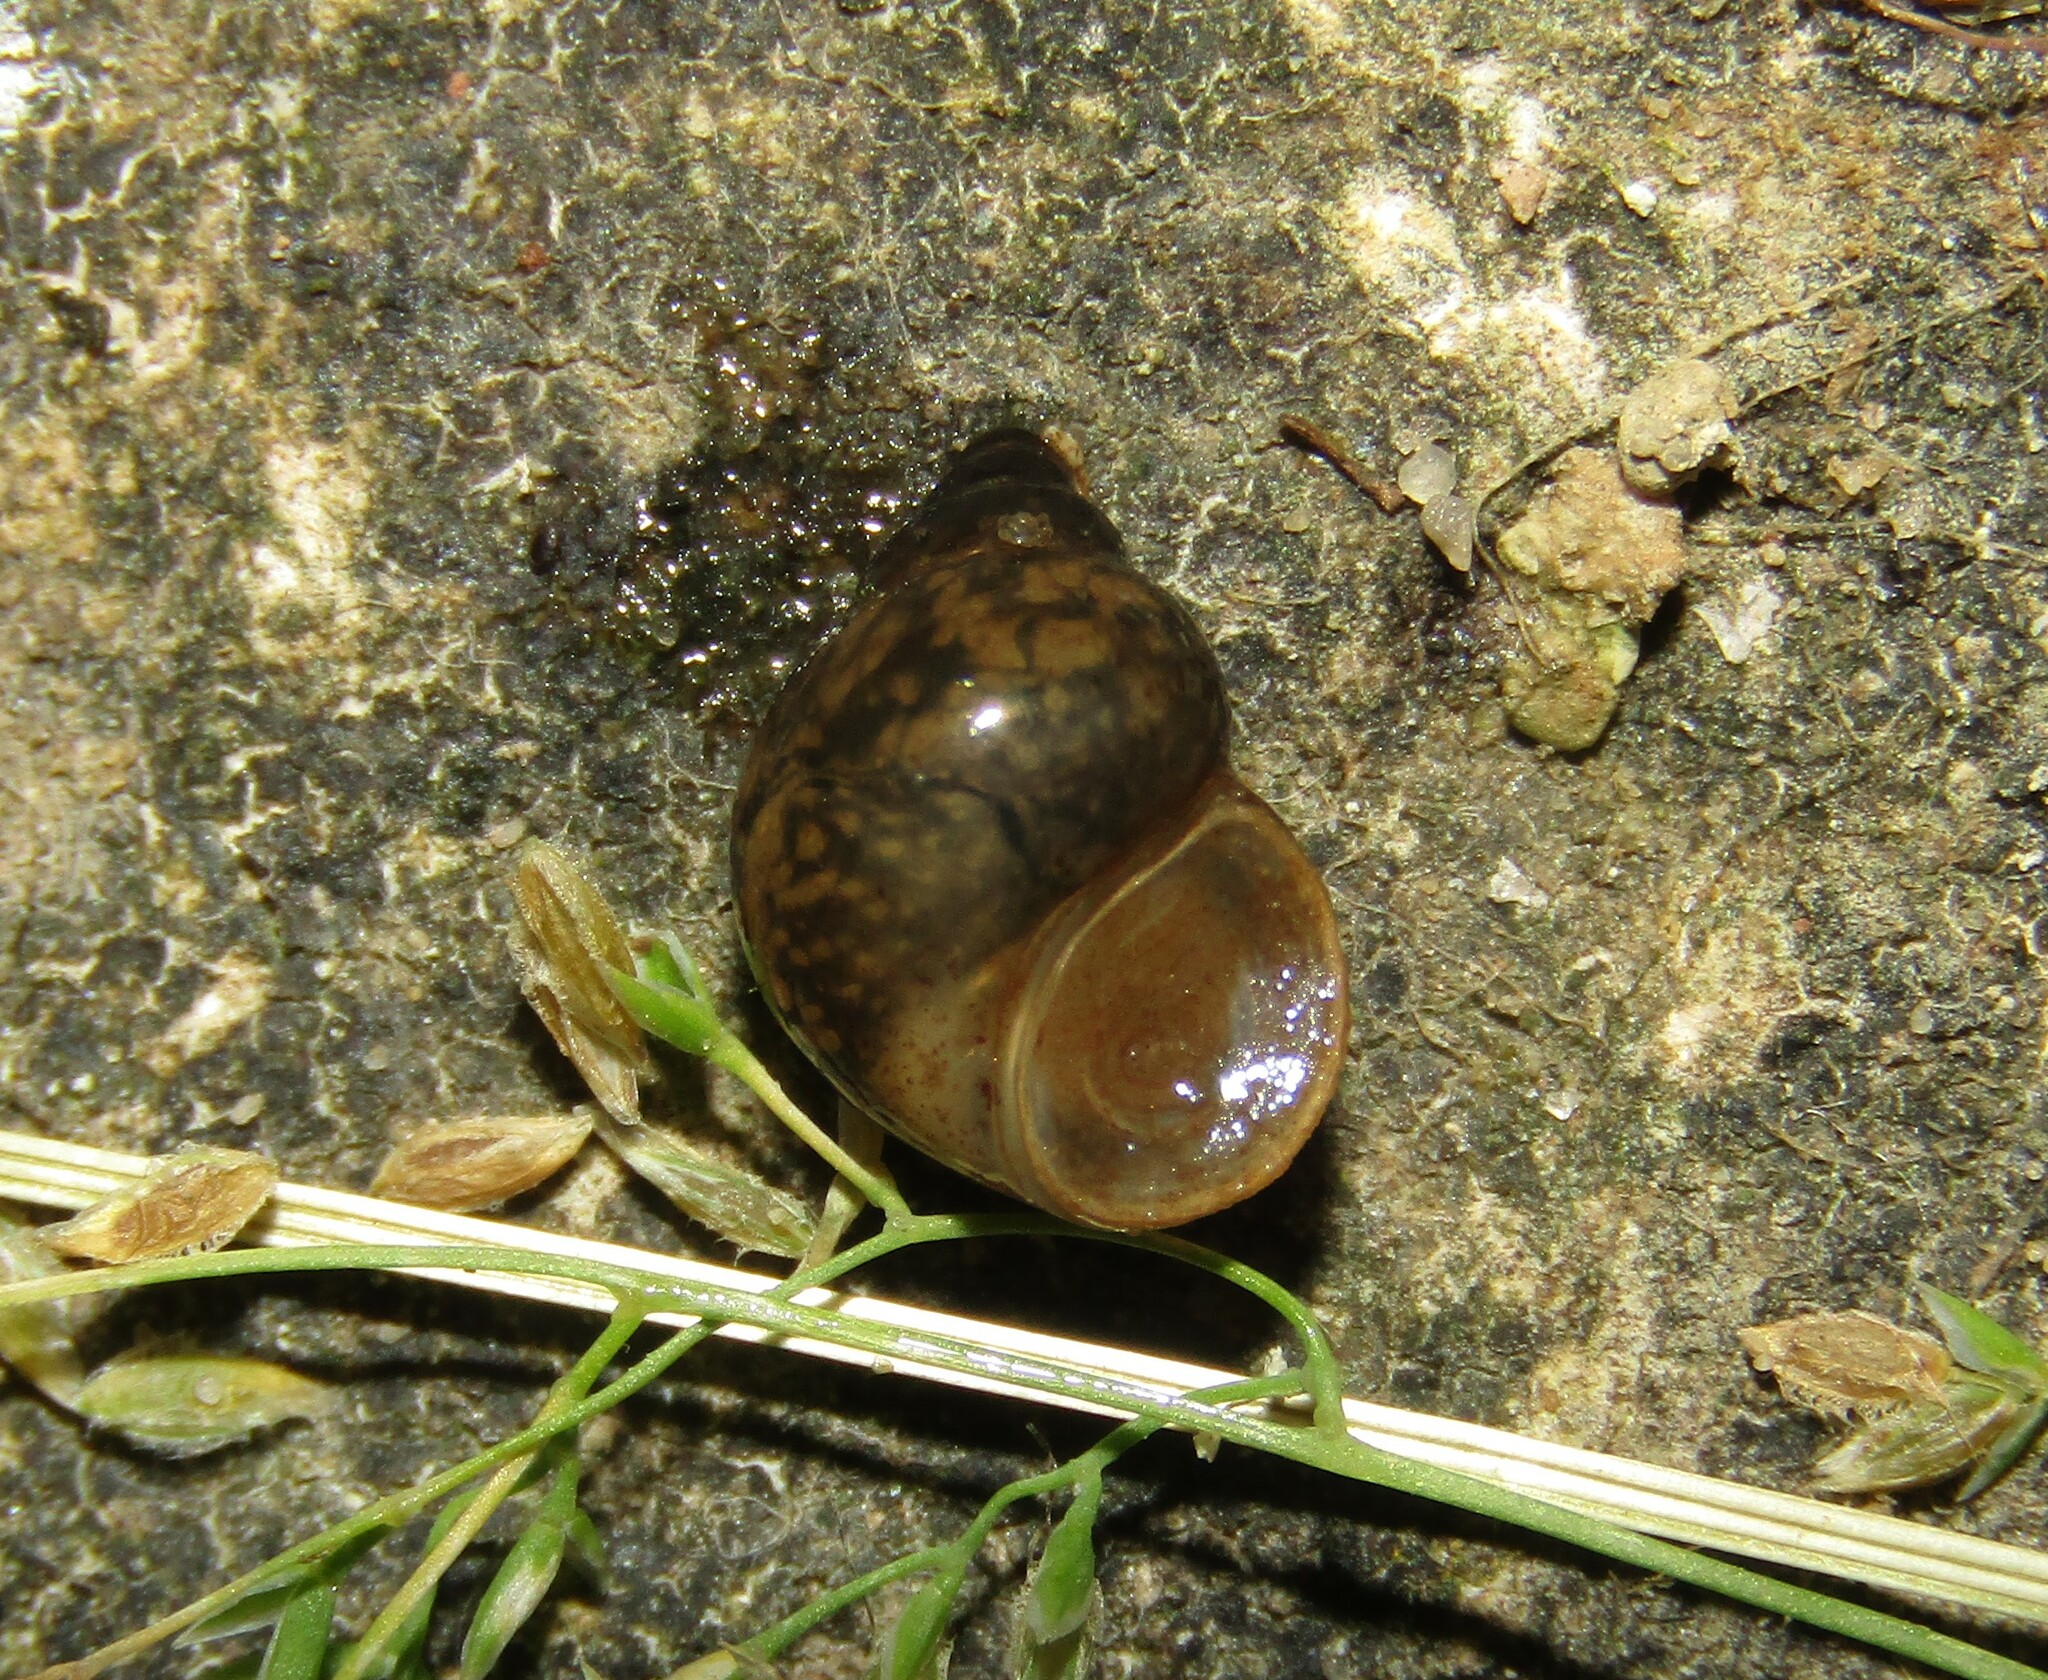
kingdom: Animalia
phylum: Mollusca
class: Gastropoda
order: Littorinimorpha
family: Bithyniidae
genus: Bithynia
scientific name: Bithynia tentaculata
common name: Common bithynia
